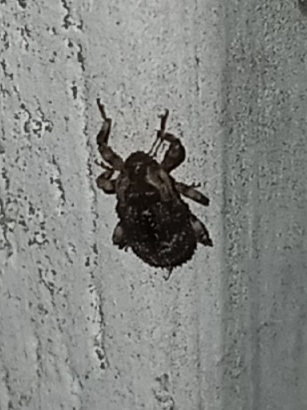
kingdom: Animalia
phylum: Arthropoda
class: Insecta
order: Coleoptera
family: Curculionidae
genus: Cophes
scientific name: Cophes fallax
